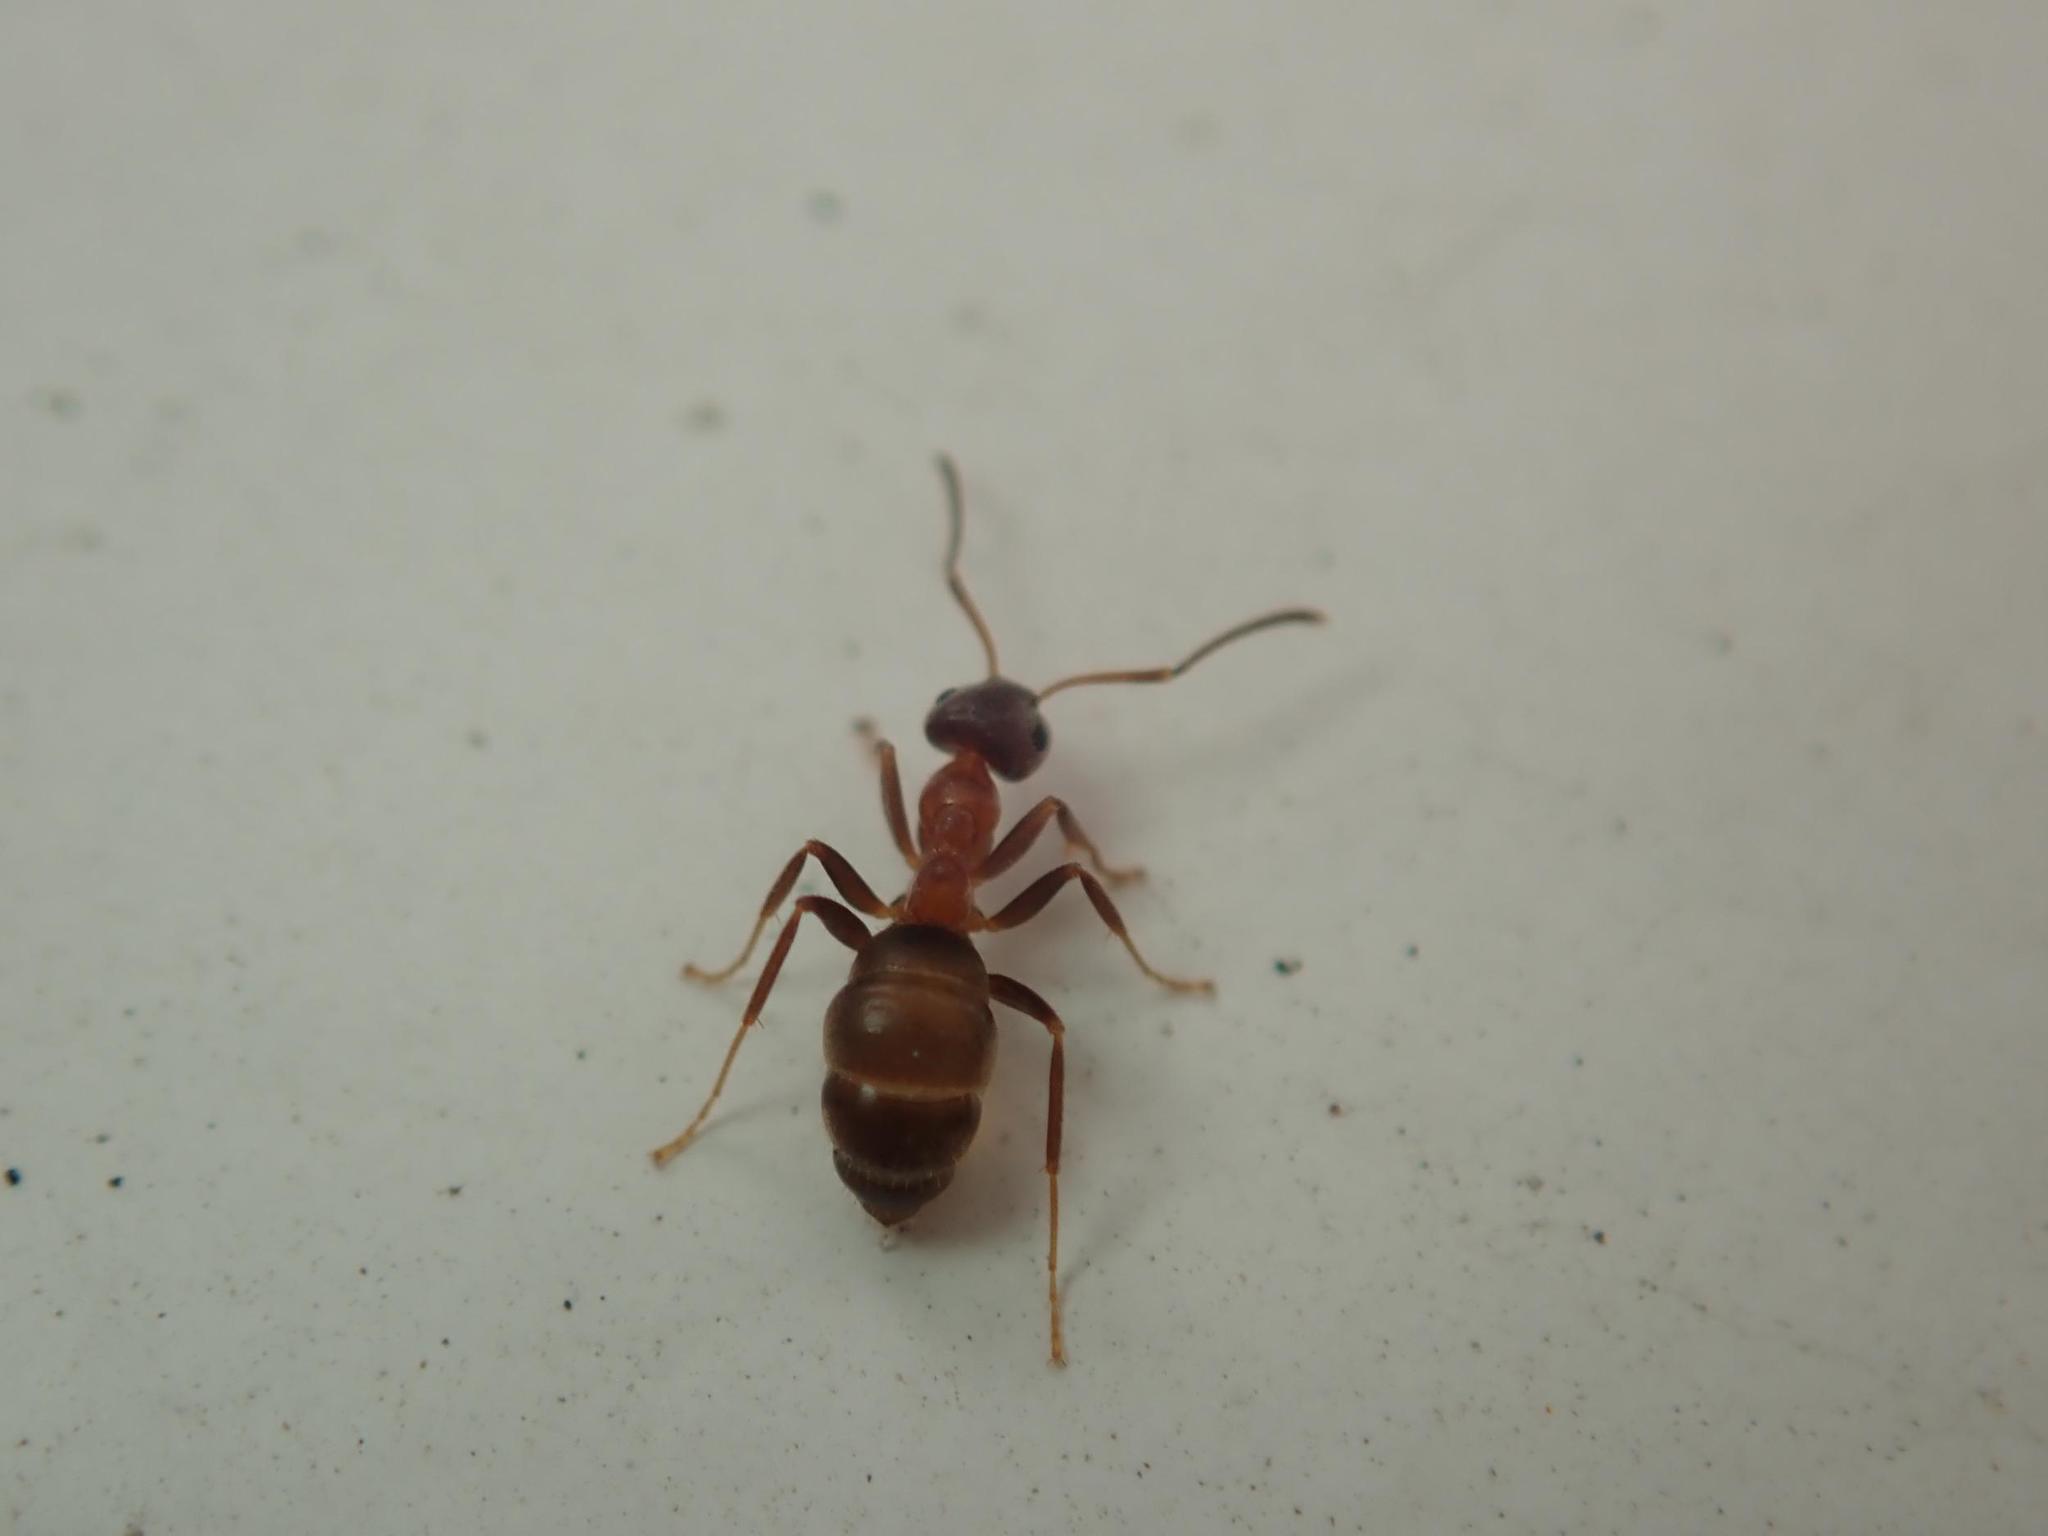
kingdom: Animalia
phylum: Arthropoda
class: Insecta
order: Hymenoptera
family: Formicidae
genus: Lasius
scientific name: Lasius emarginatus
